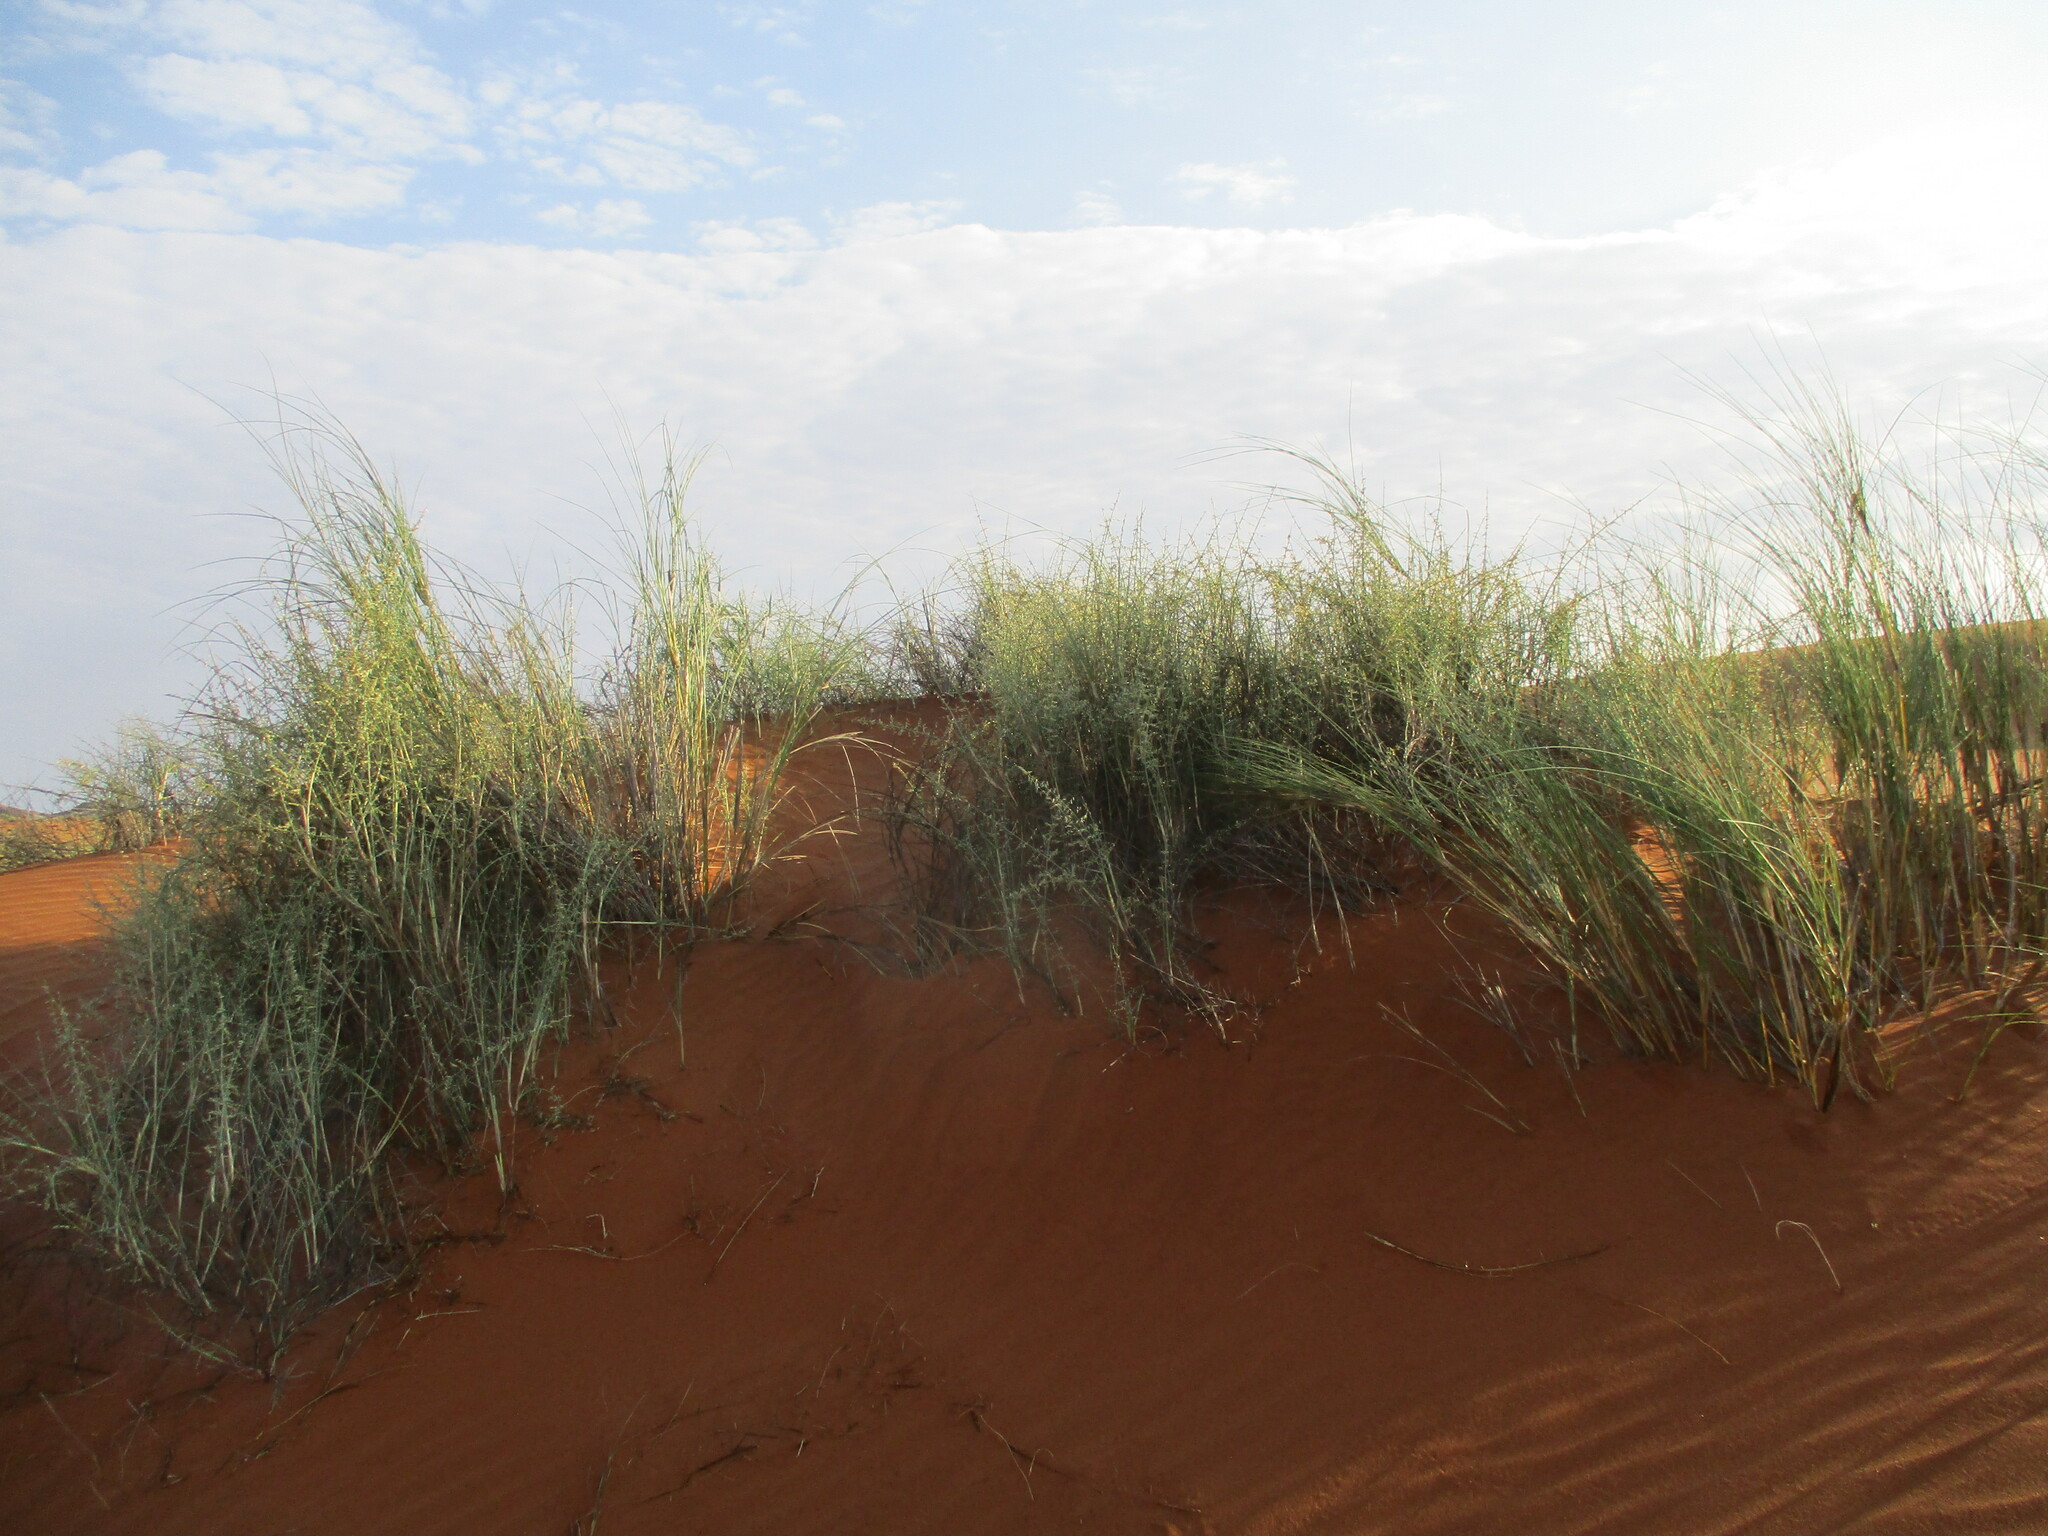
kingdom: Plantae
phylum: Tracheophyta
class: Liliopsida
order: Poales
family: Poaceae
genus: Cladoraphis
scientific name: Cladoraphis spinosa
